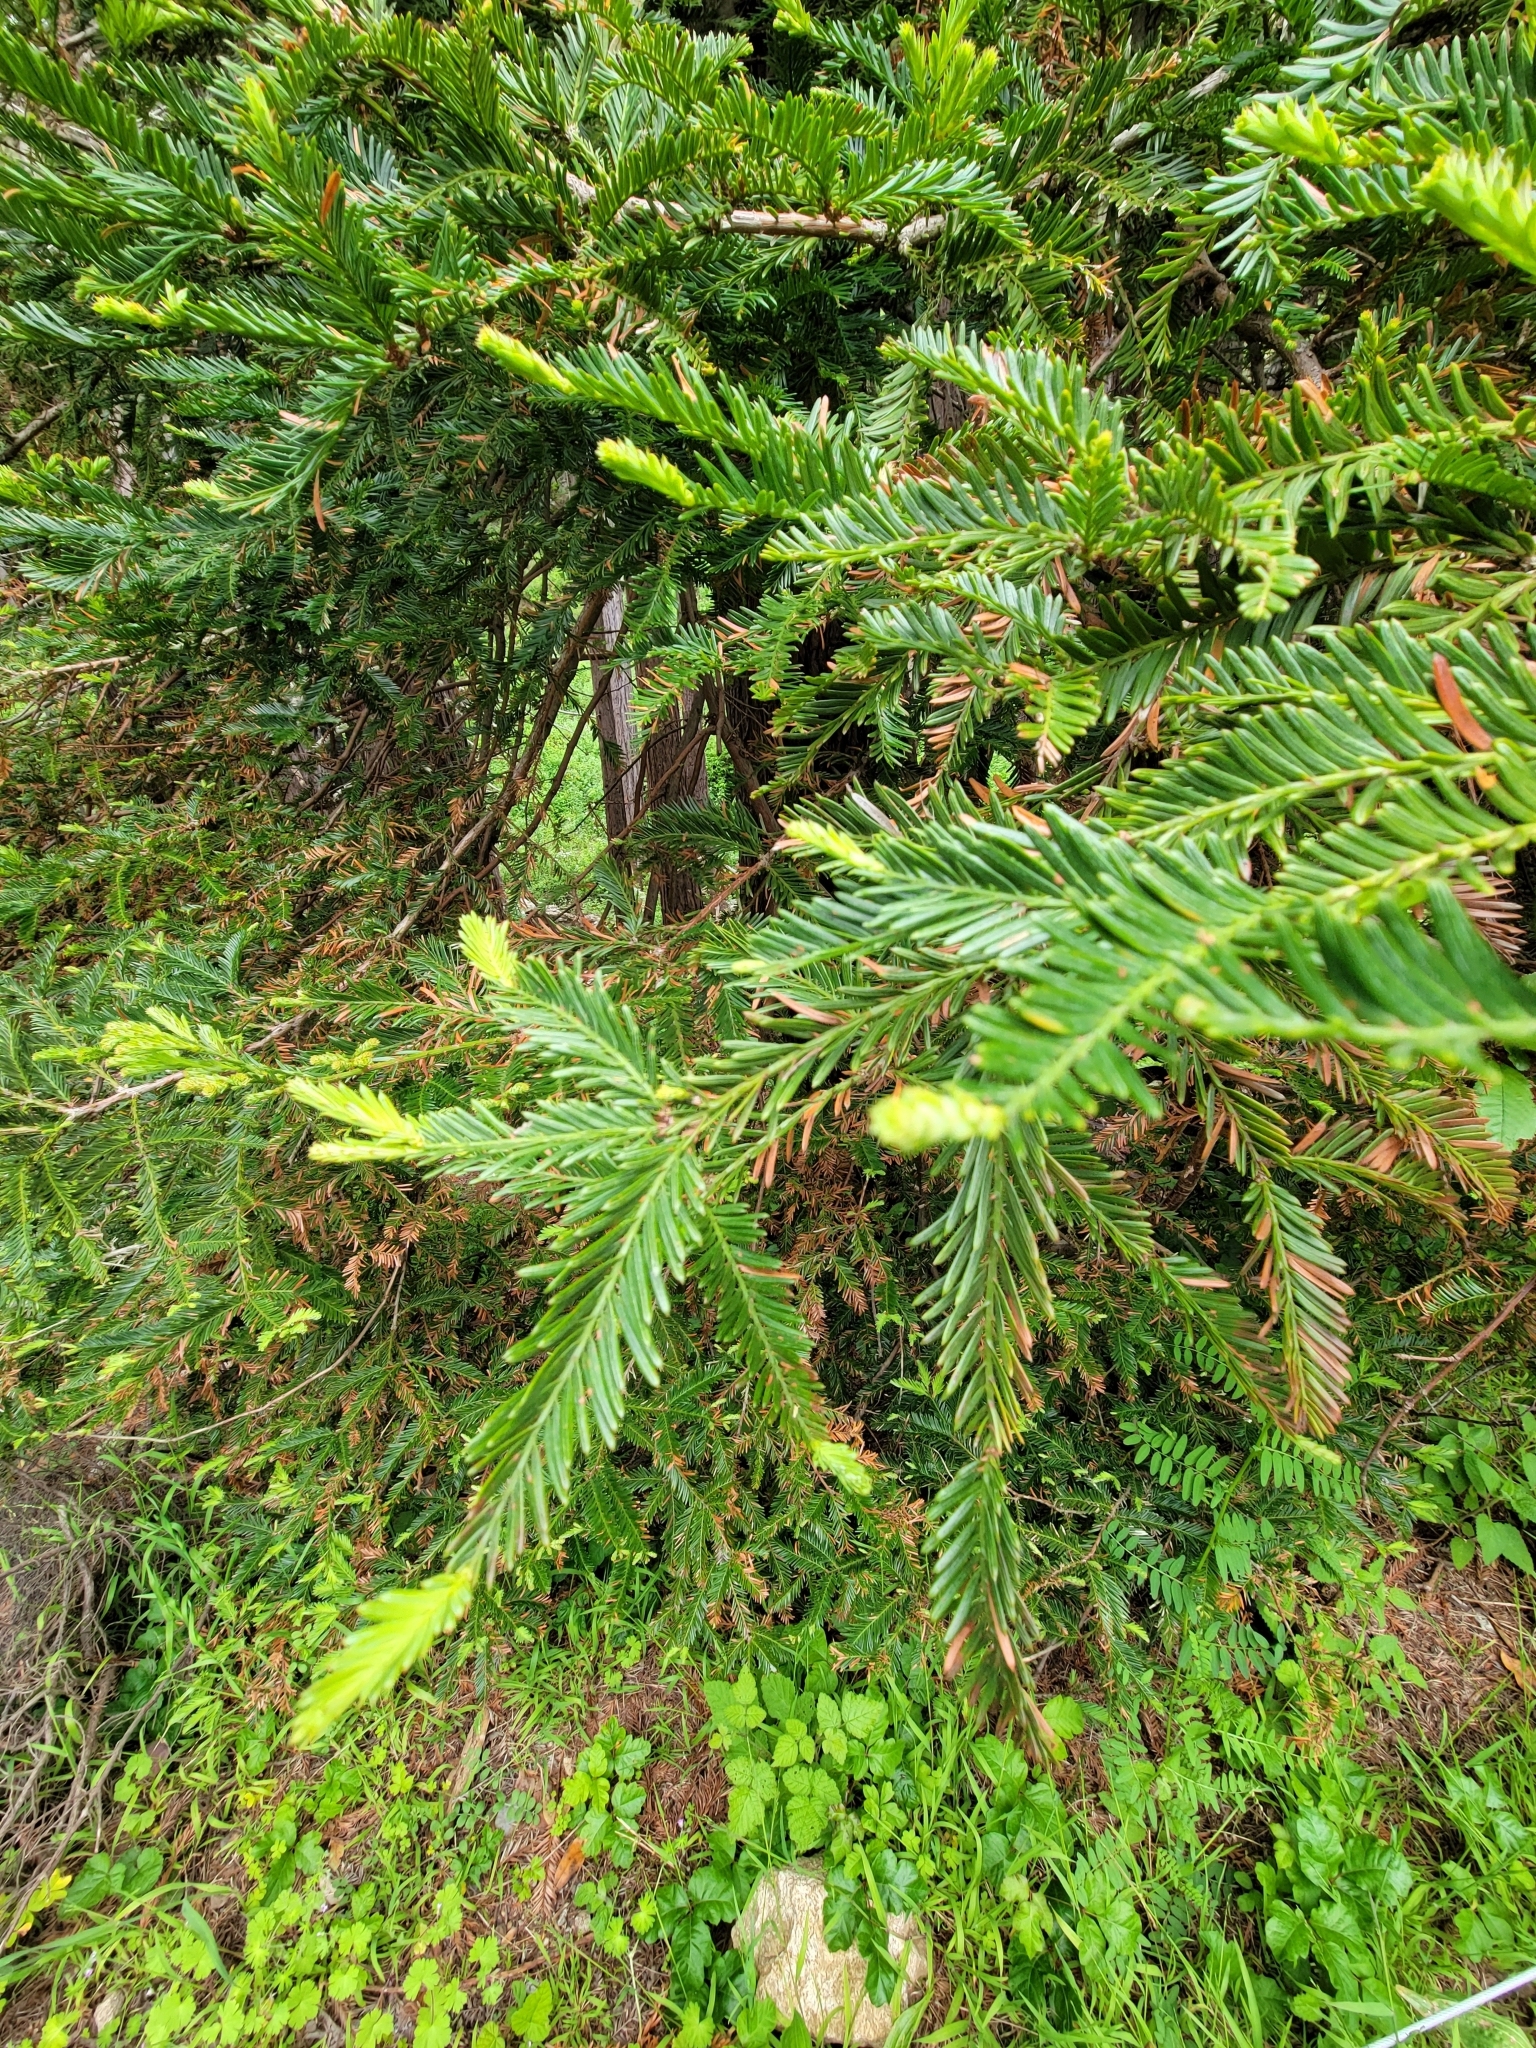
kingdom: Plantae
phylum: Tracheophyta
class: Pinopsida
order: Pinales
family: Cupressaceae
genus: Sequoia
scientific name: Sequoia sempervirens
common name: Coast redwood
